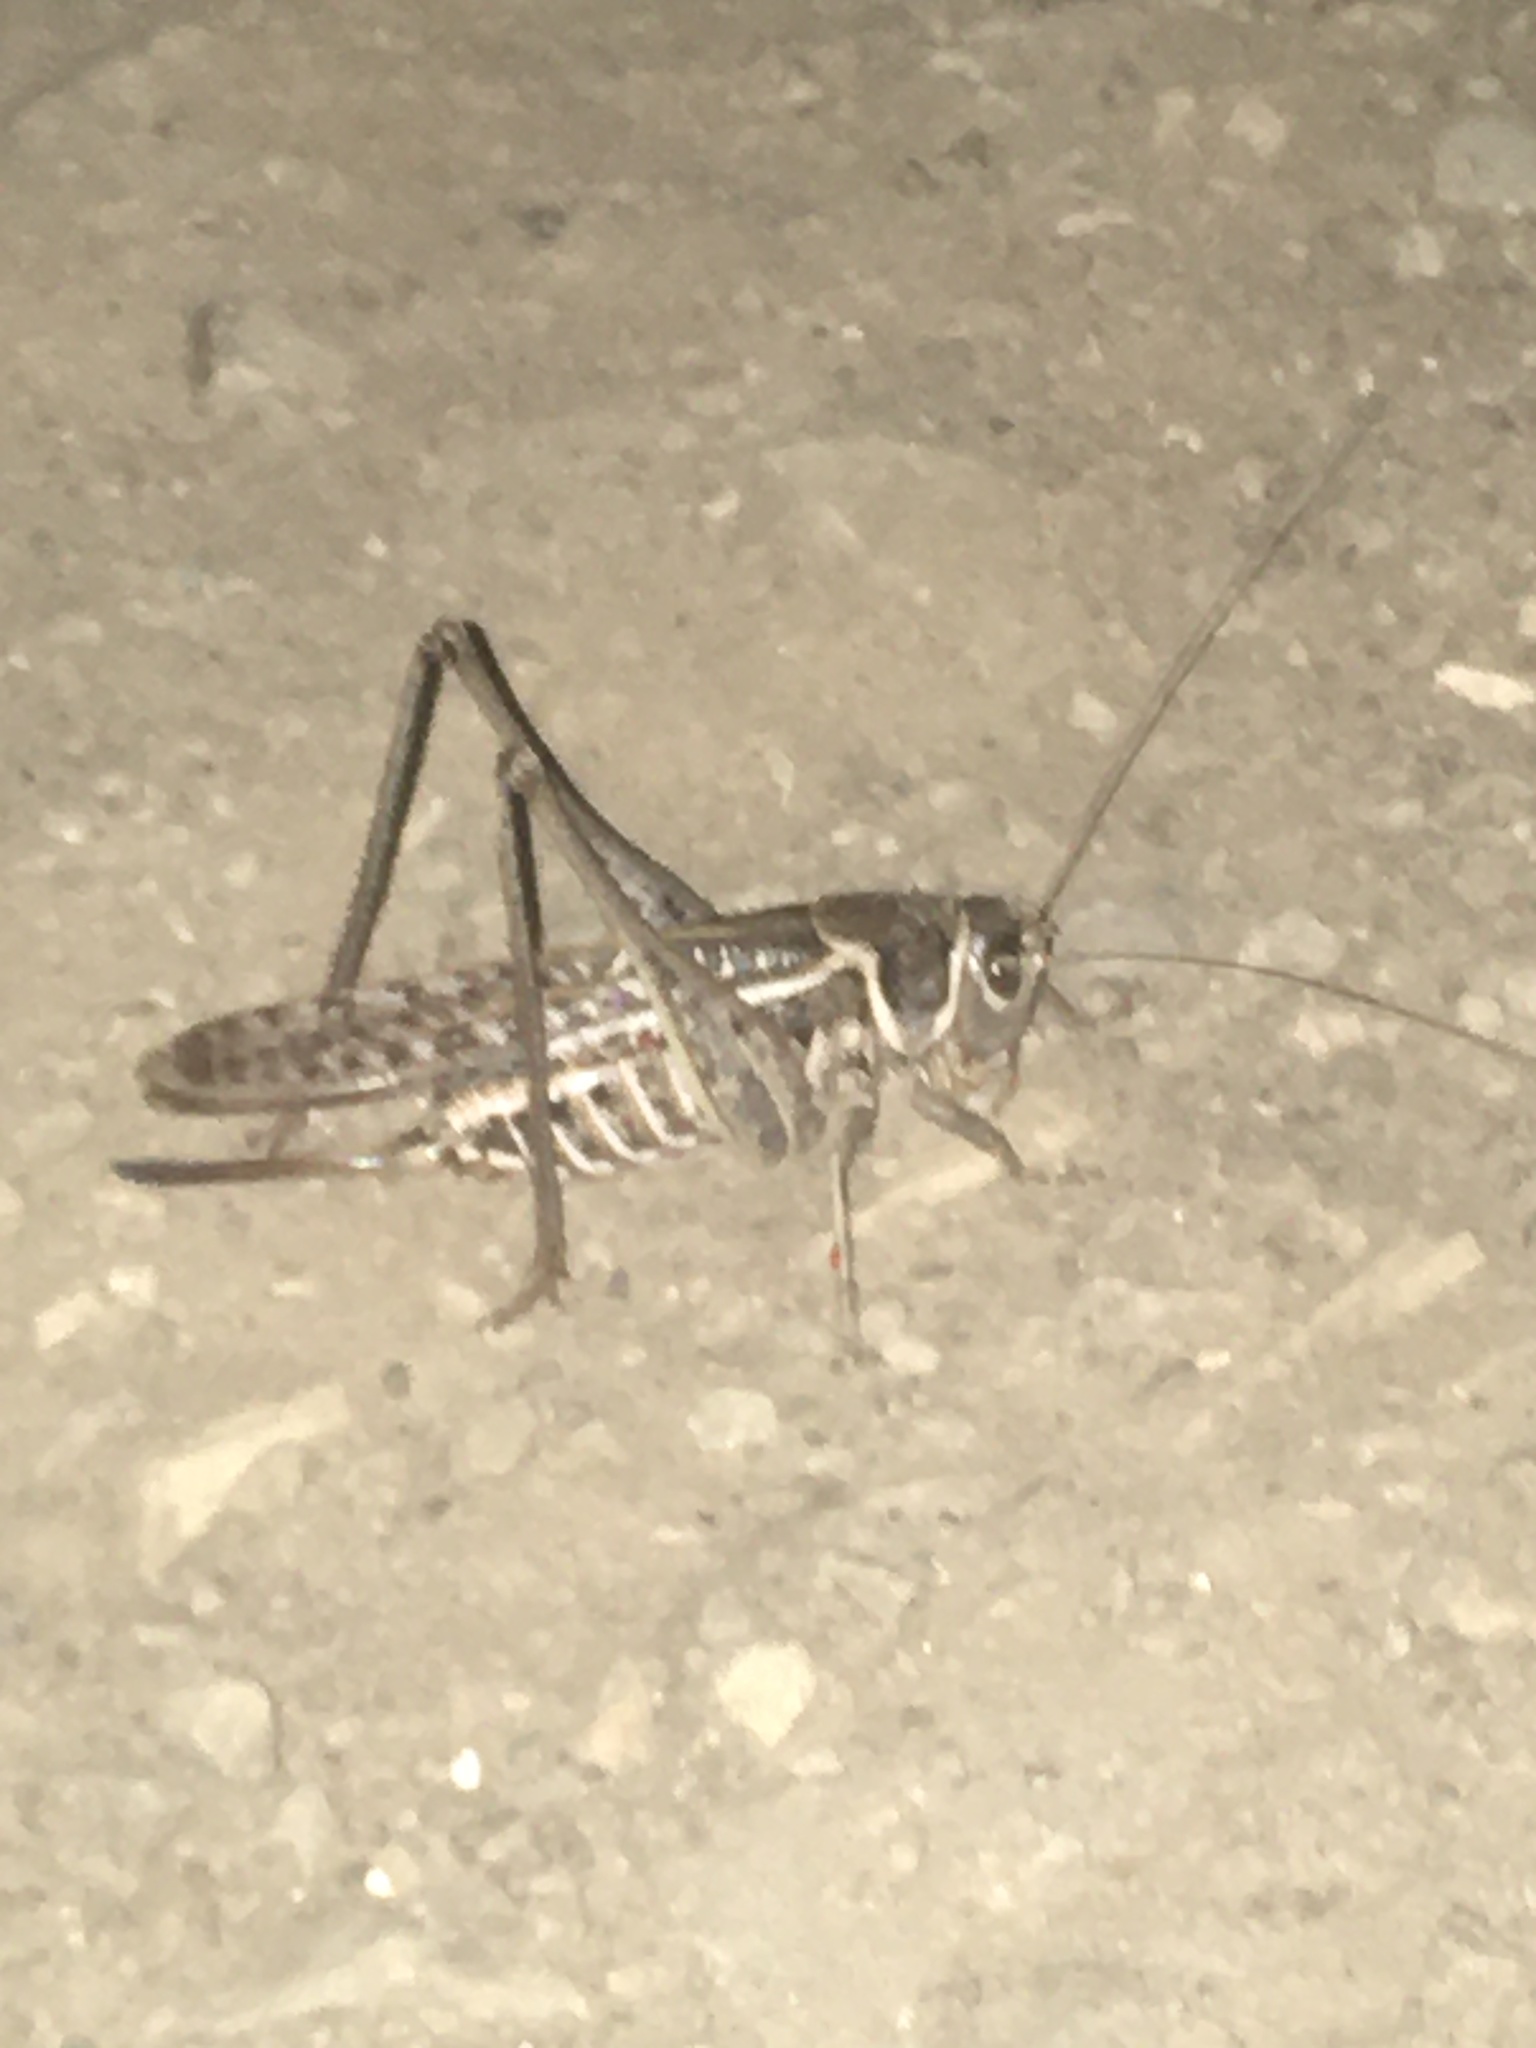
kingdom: Animalia
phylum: Arthropoda
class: Insecta
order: Orthoptera
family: Tettigoniidae
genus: Decticus
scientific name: Decticus albifrons
